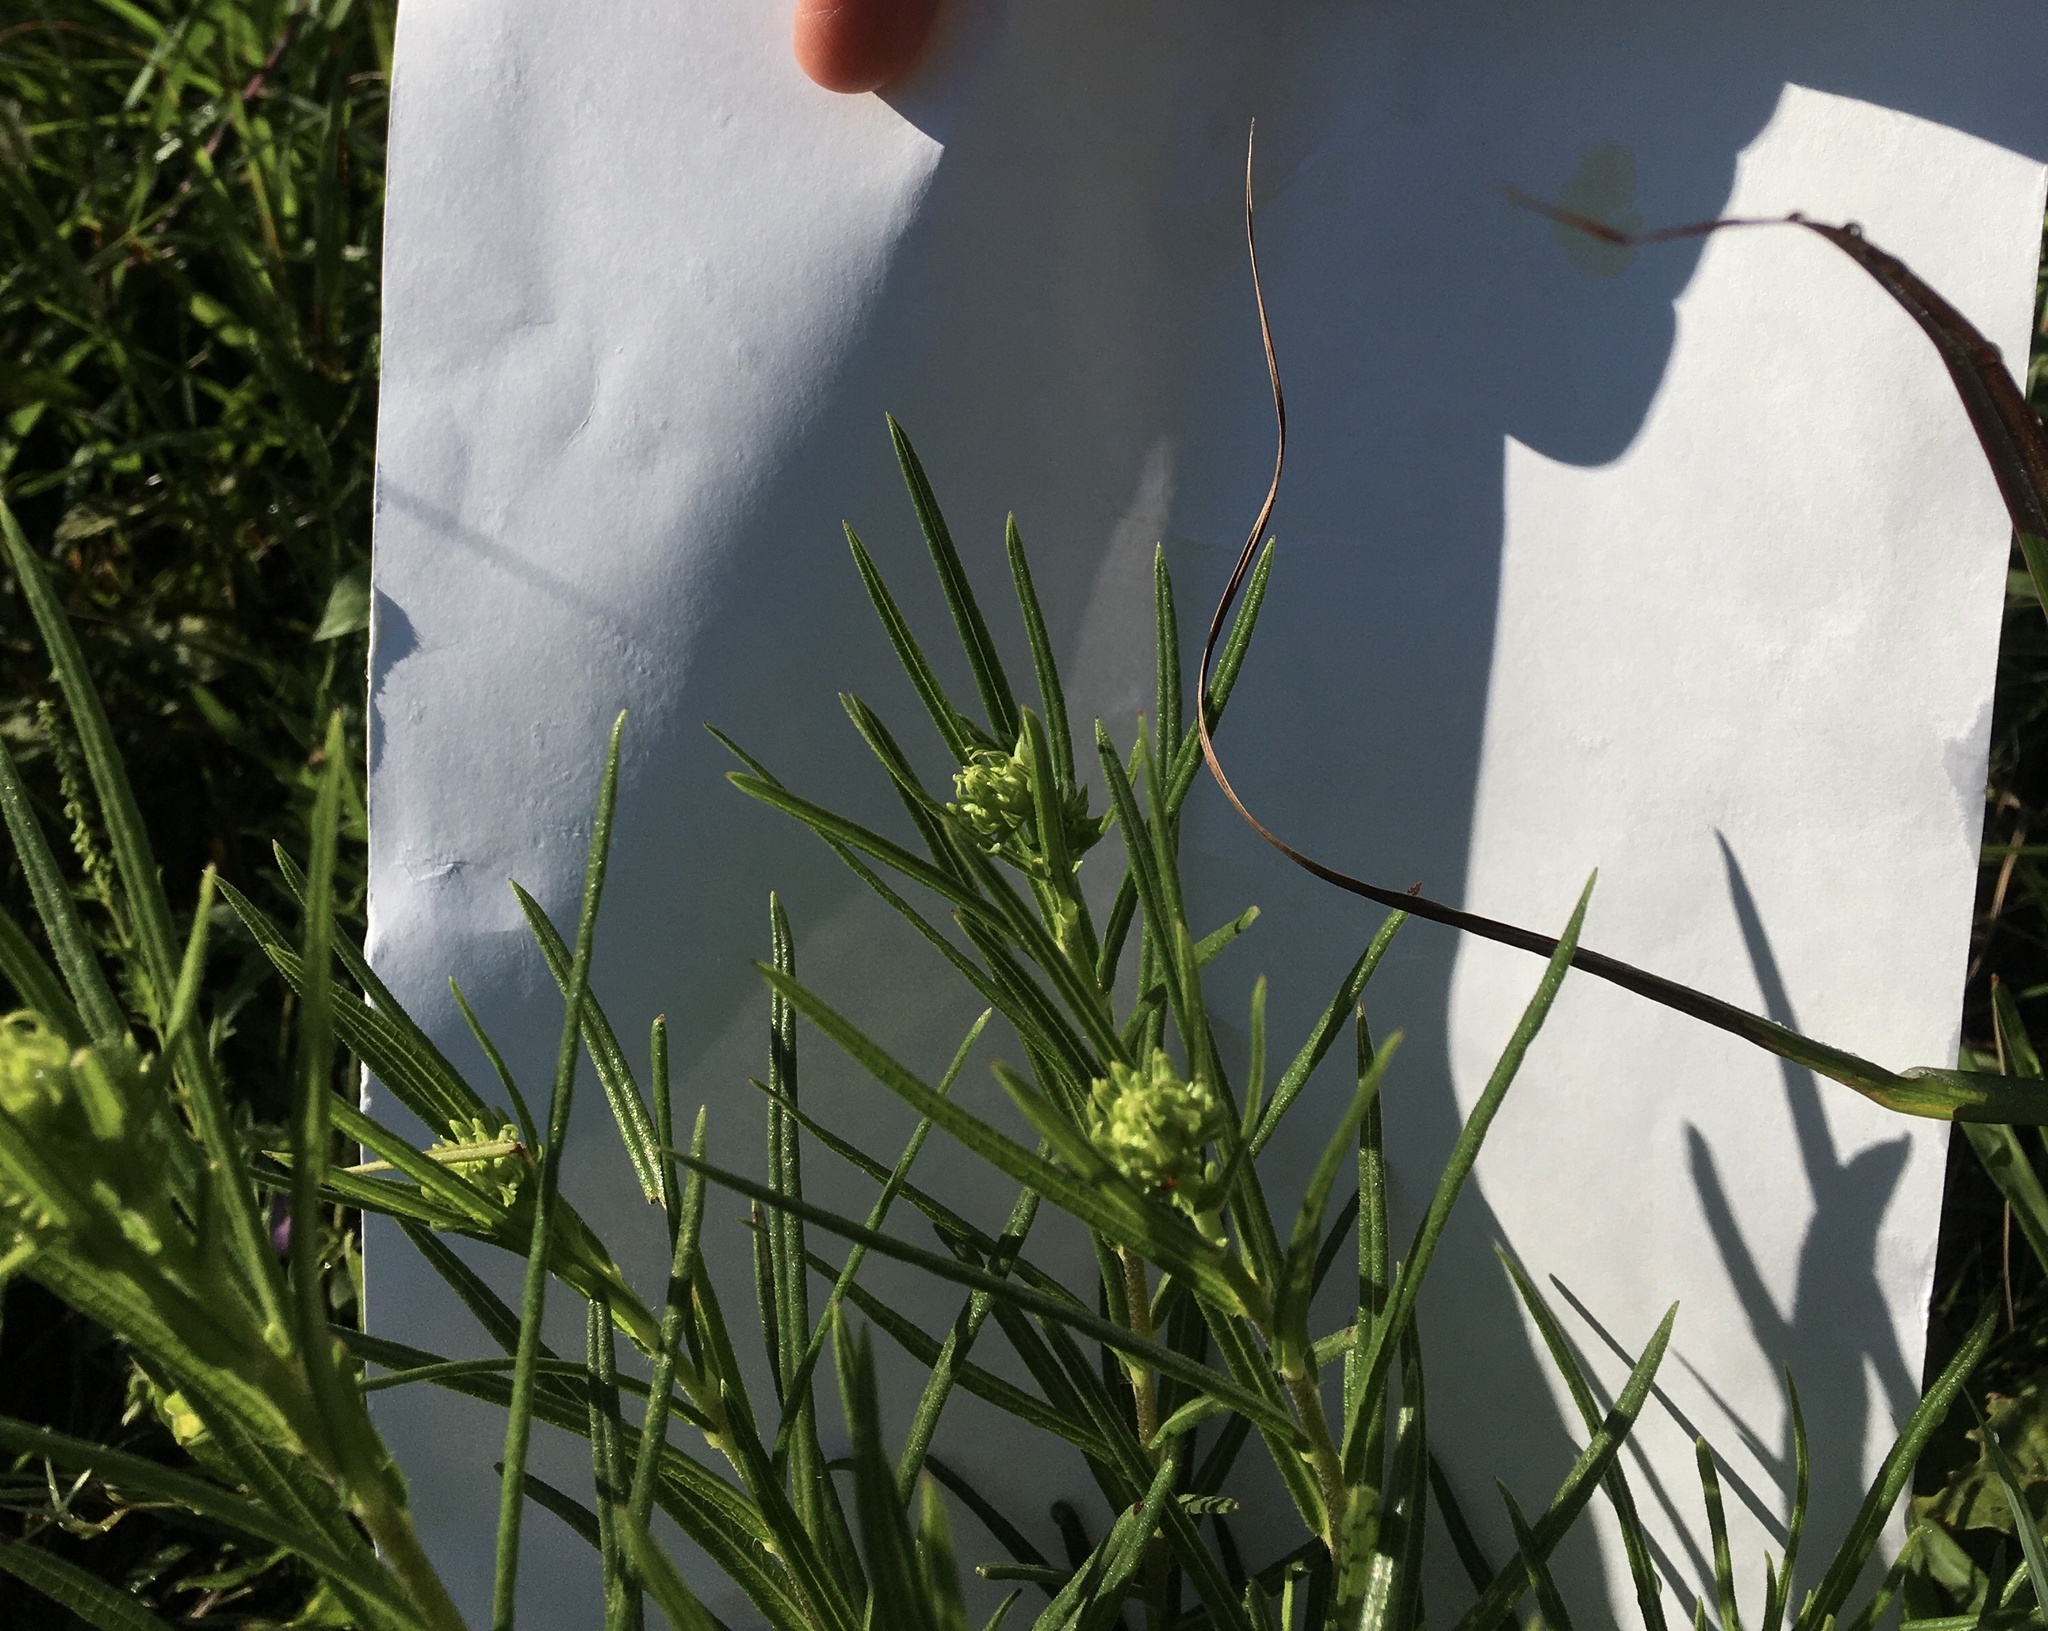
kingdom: Plantae
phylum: Tracheophyta
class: Magnoliopsida
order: Asterales
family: Asteraceae
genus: Helianthus
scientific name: Helianthus angustifolius
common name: Swamp sunflower
